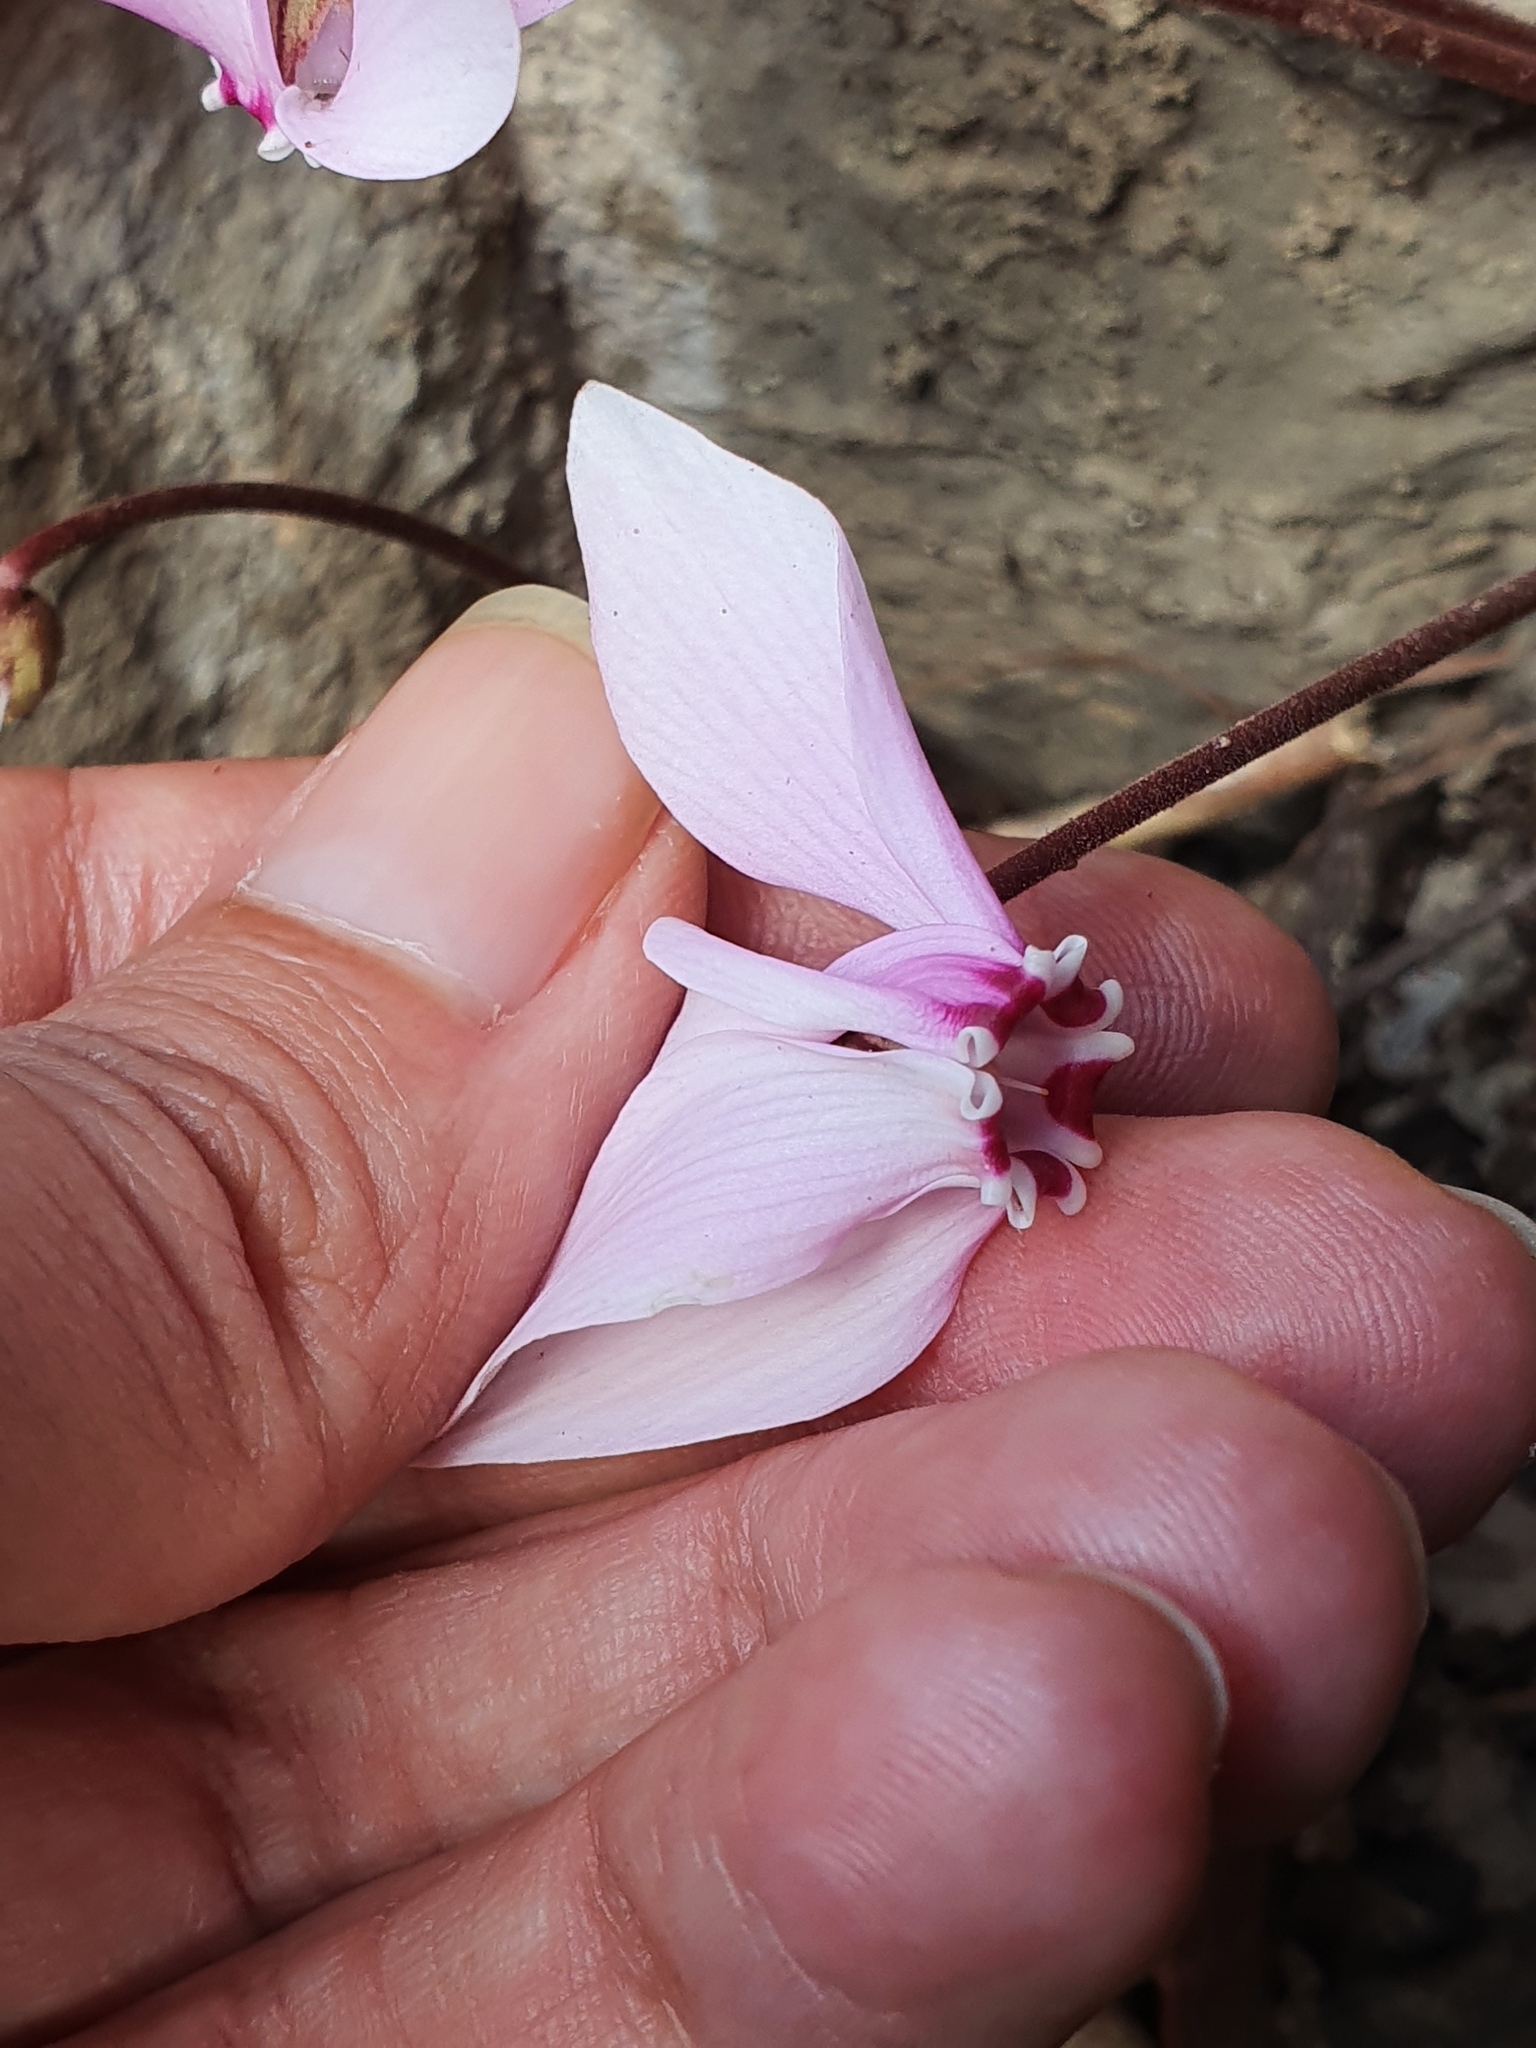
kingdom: Plantae
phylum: Tracheophyta
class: Magnoliopsida
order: Ericales
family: Primulaceae
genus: Cyclamen
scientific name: Cyclamen africanum
